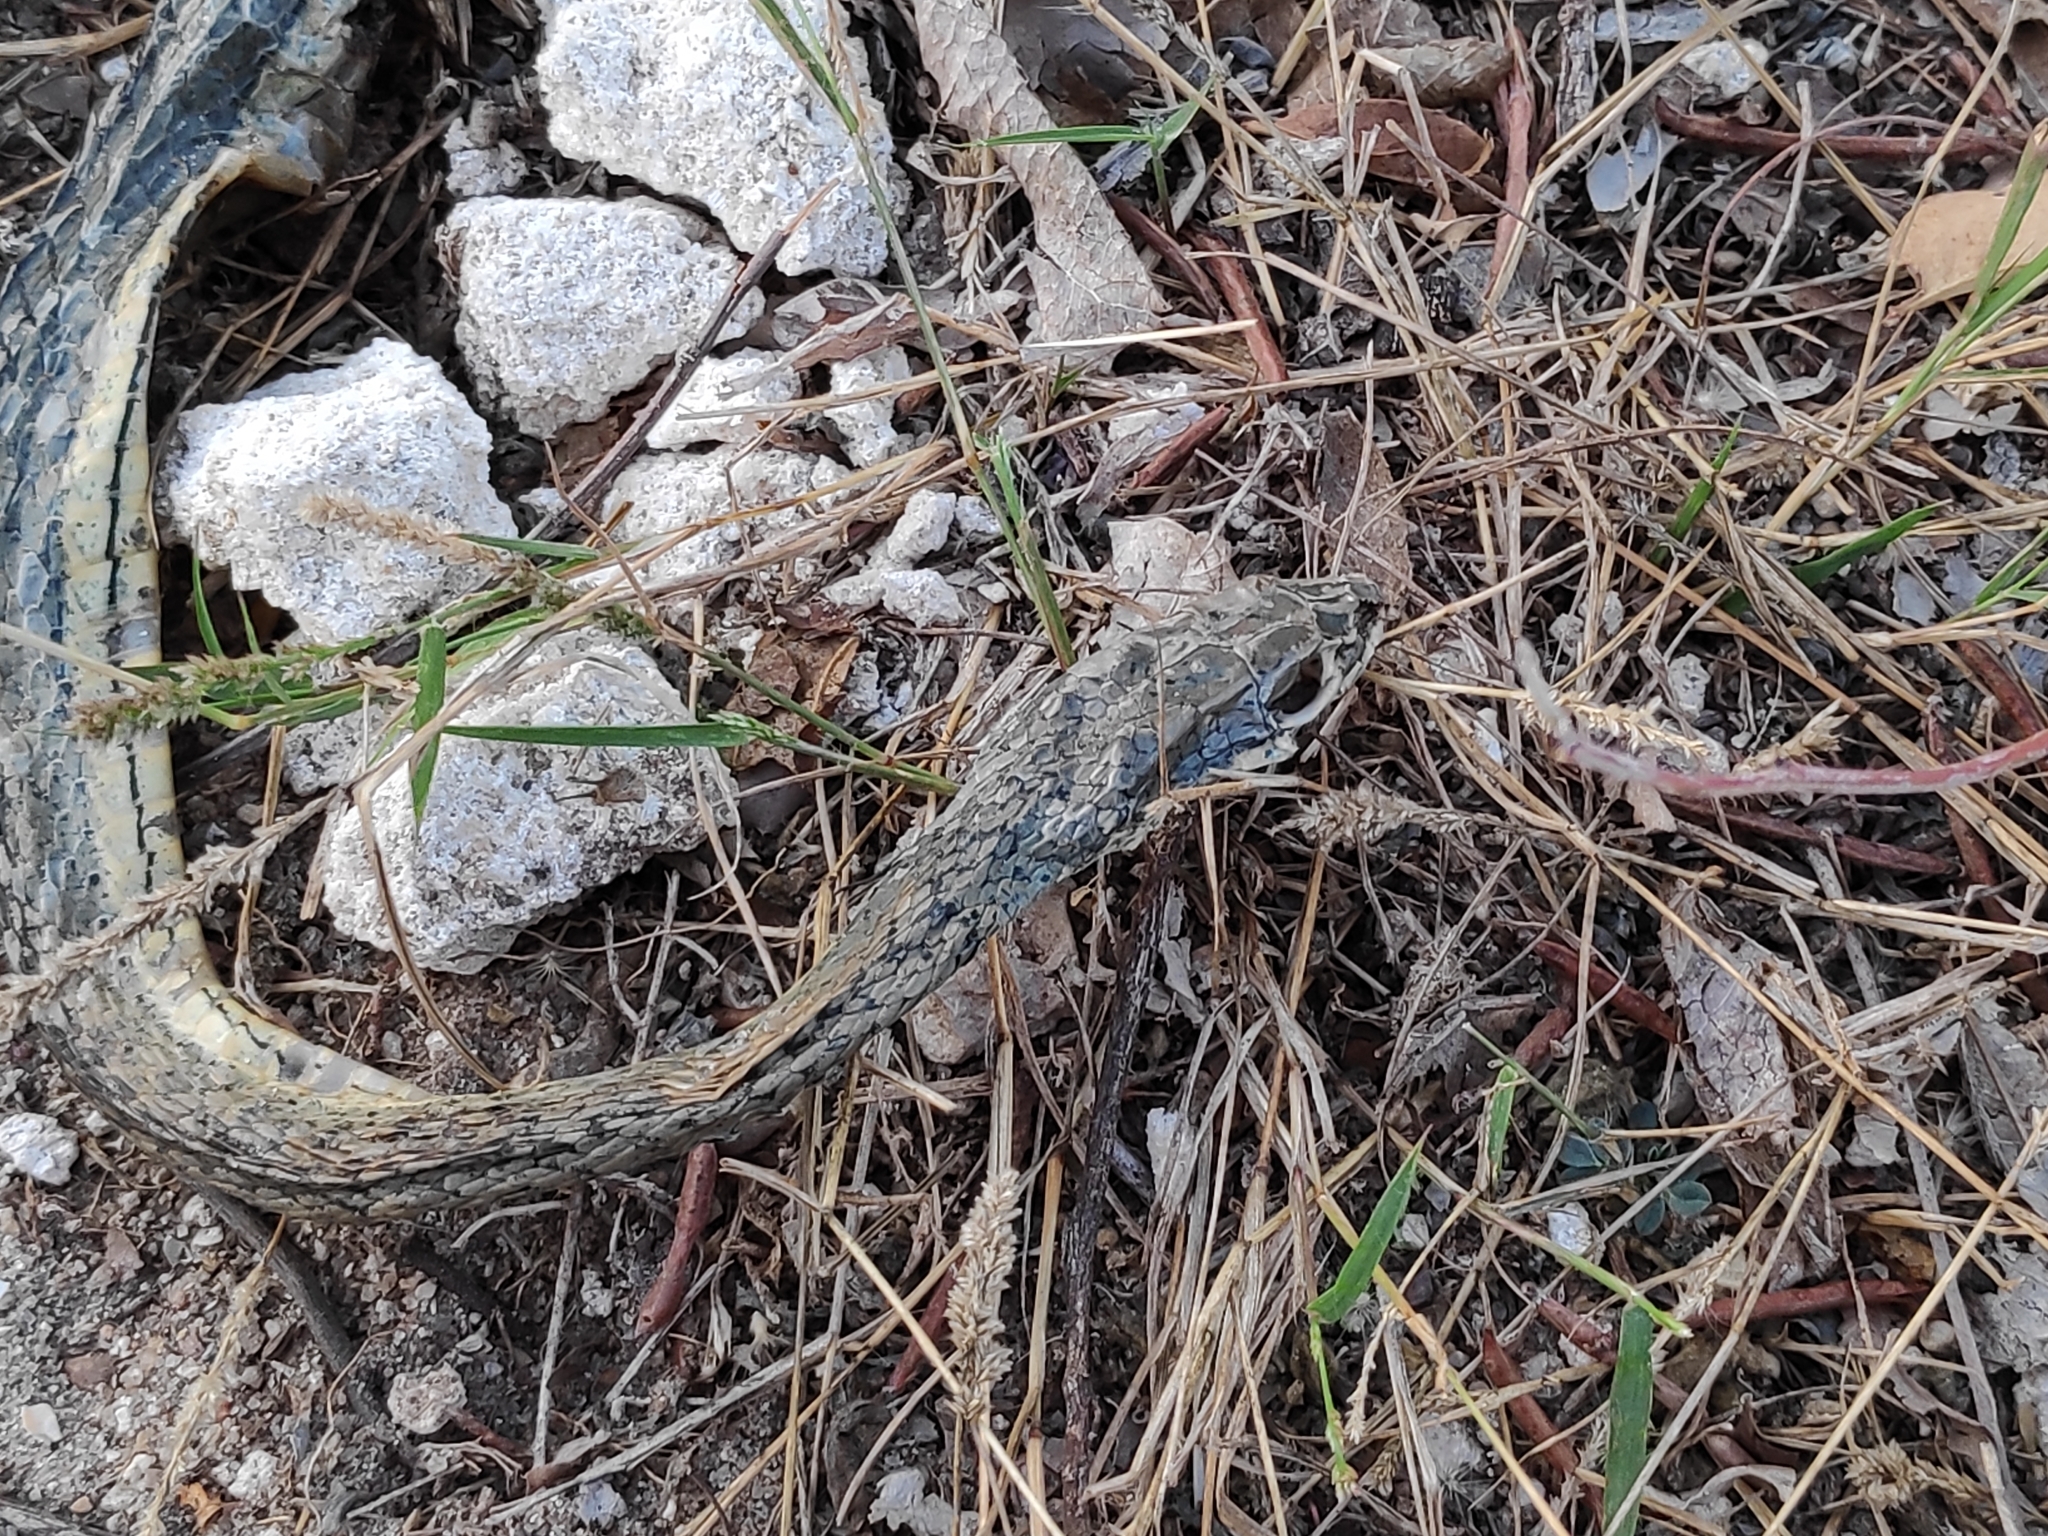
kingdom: Animalia
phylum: Chordata
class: Squamata
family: Psammophiidae
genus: Psammophis
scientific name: Psammophis orientalis
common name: Eastern stripe-bellied sand snake
